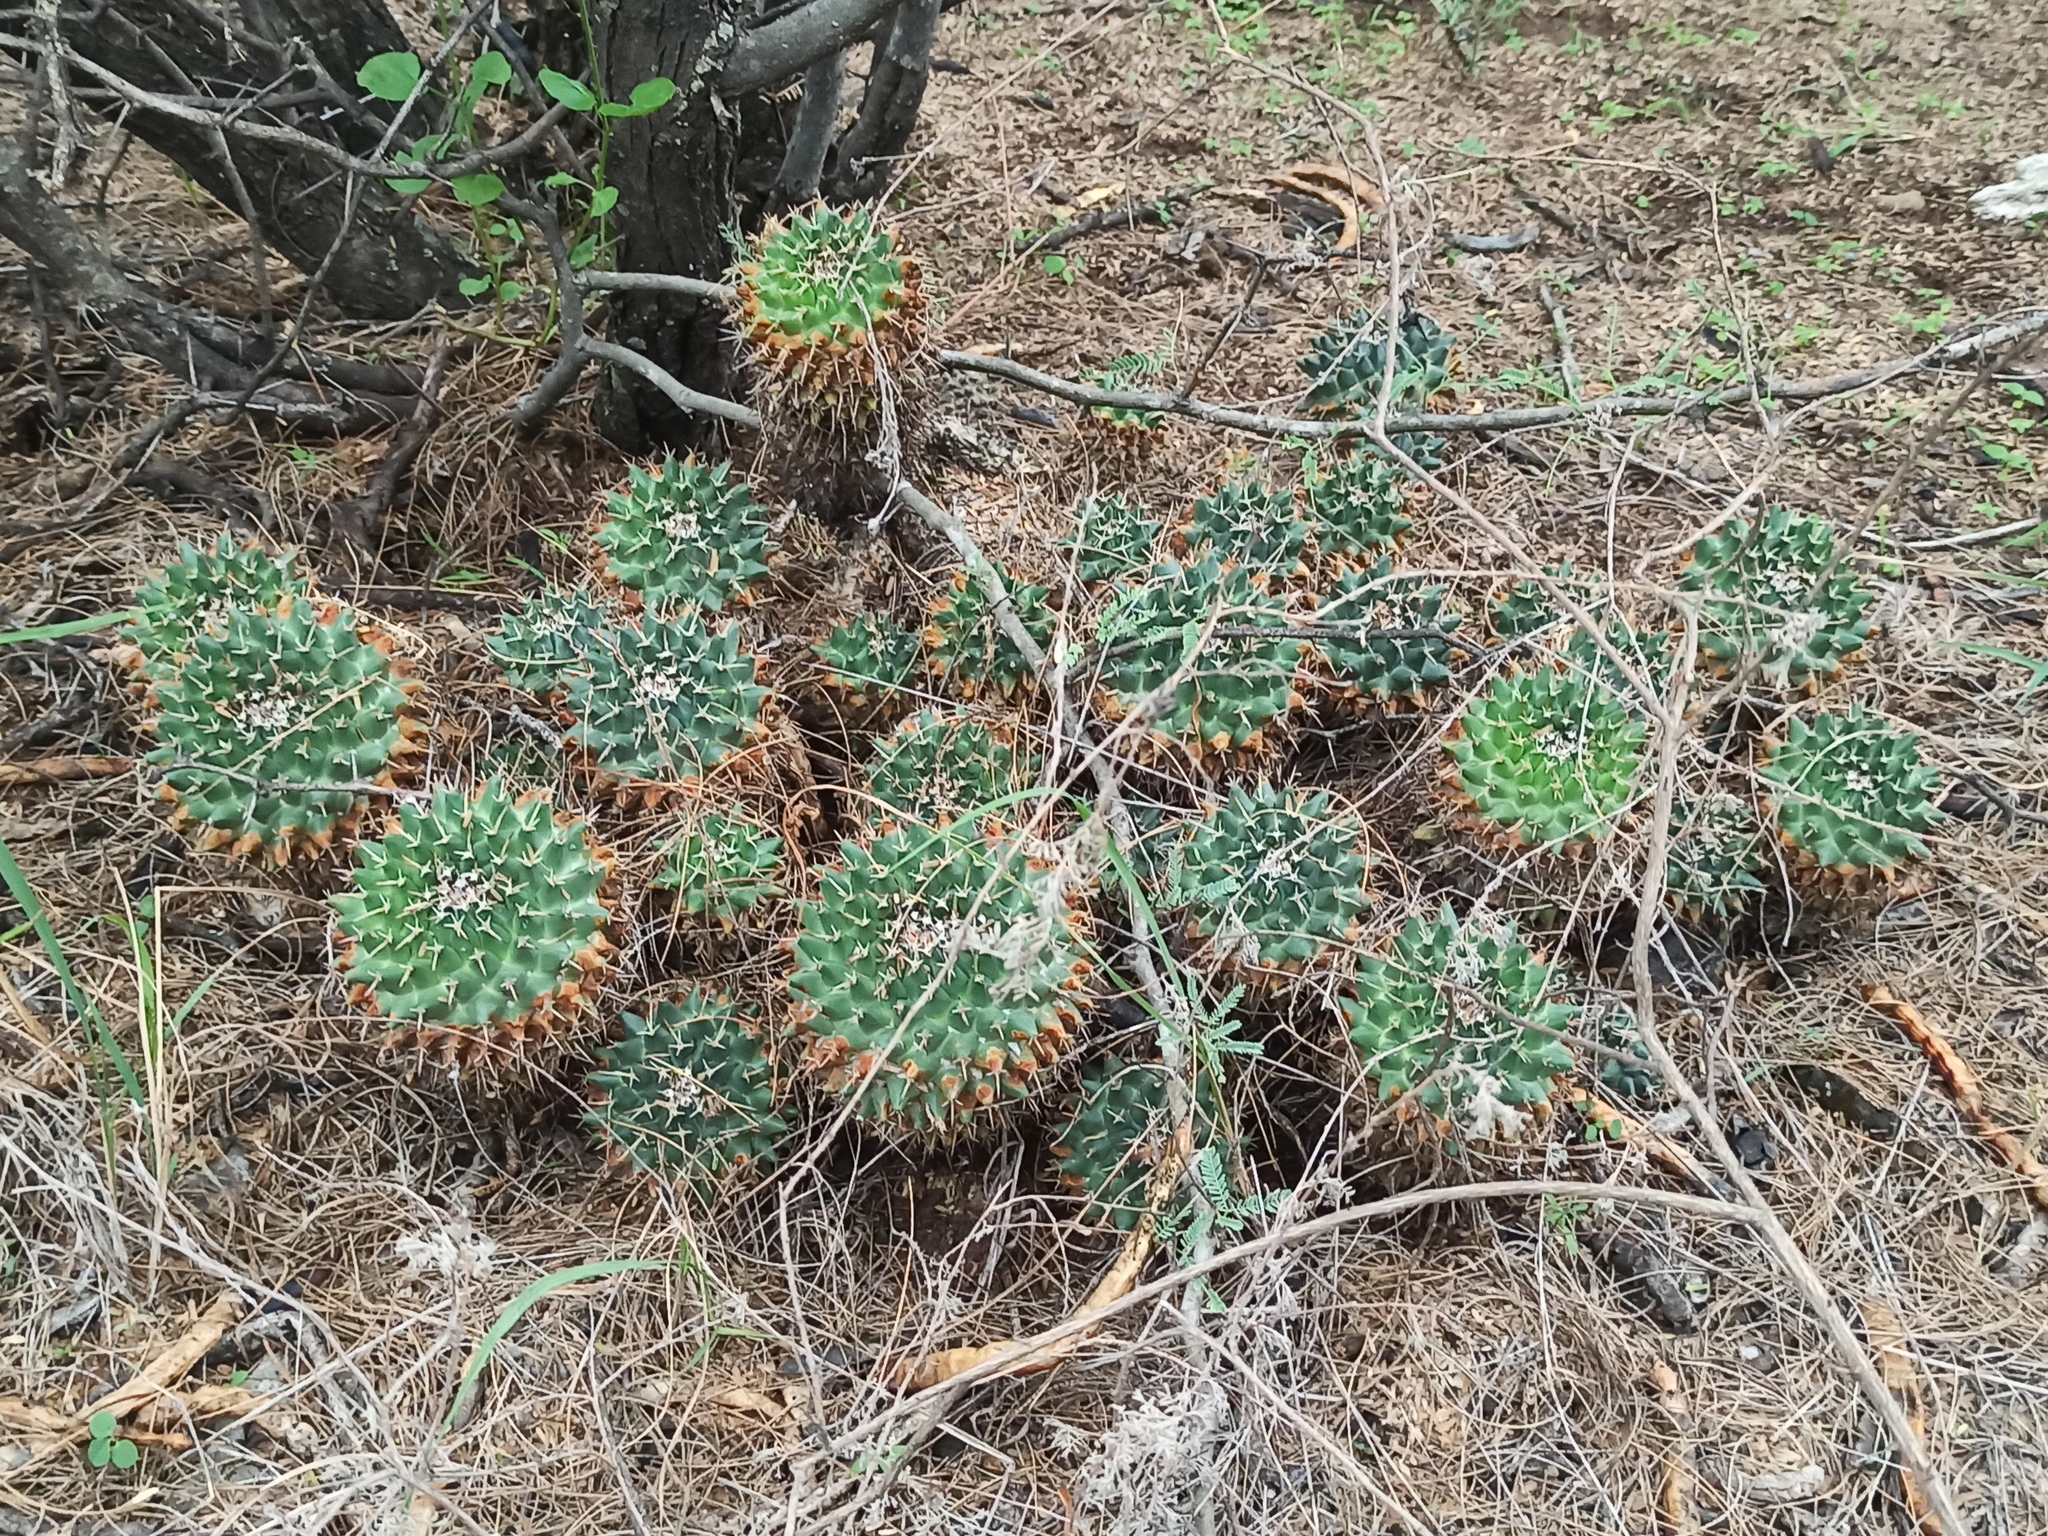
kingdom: Plantae
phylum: Tracheophyta
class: Magnoliopsida
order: Caryophyllales
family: Cactaceae
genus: Mammillaria
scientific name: Mammillaria magnimamma
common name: Mexican pincushion
